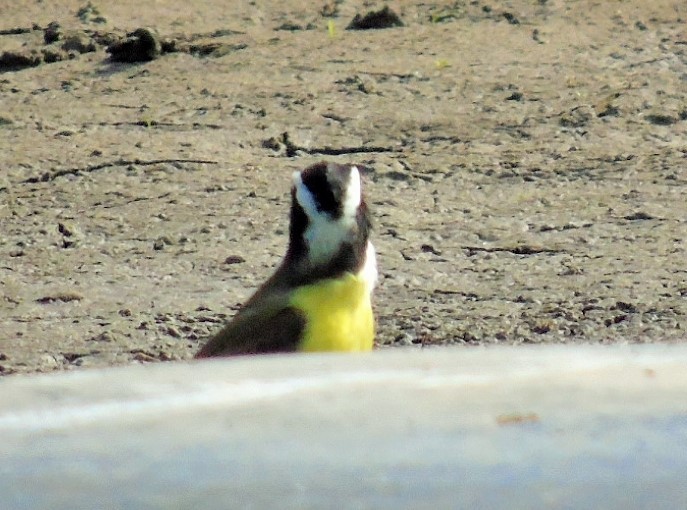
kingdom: Animalia
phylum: Chordata
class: Aves
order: Passeriformes
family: Tyrannidae
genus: Pitangus
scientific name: Pitangus sulphuratus
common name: Great kiskadee
